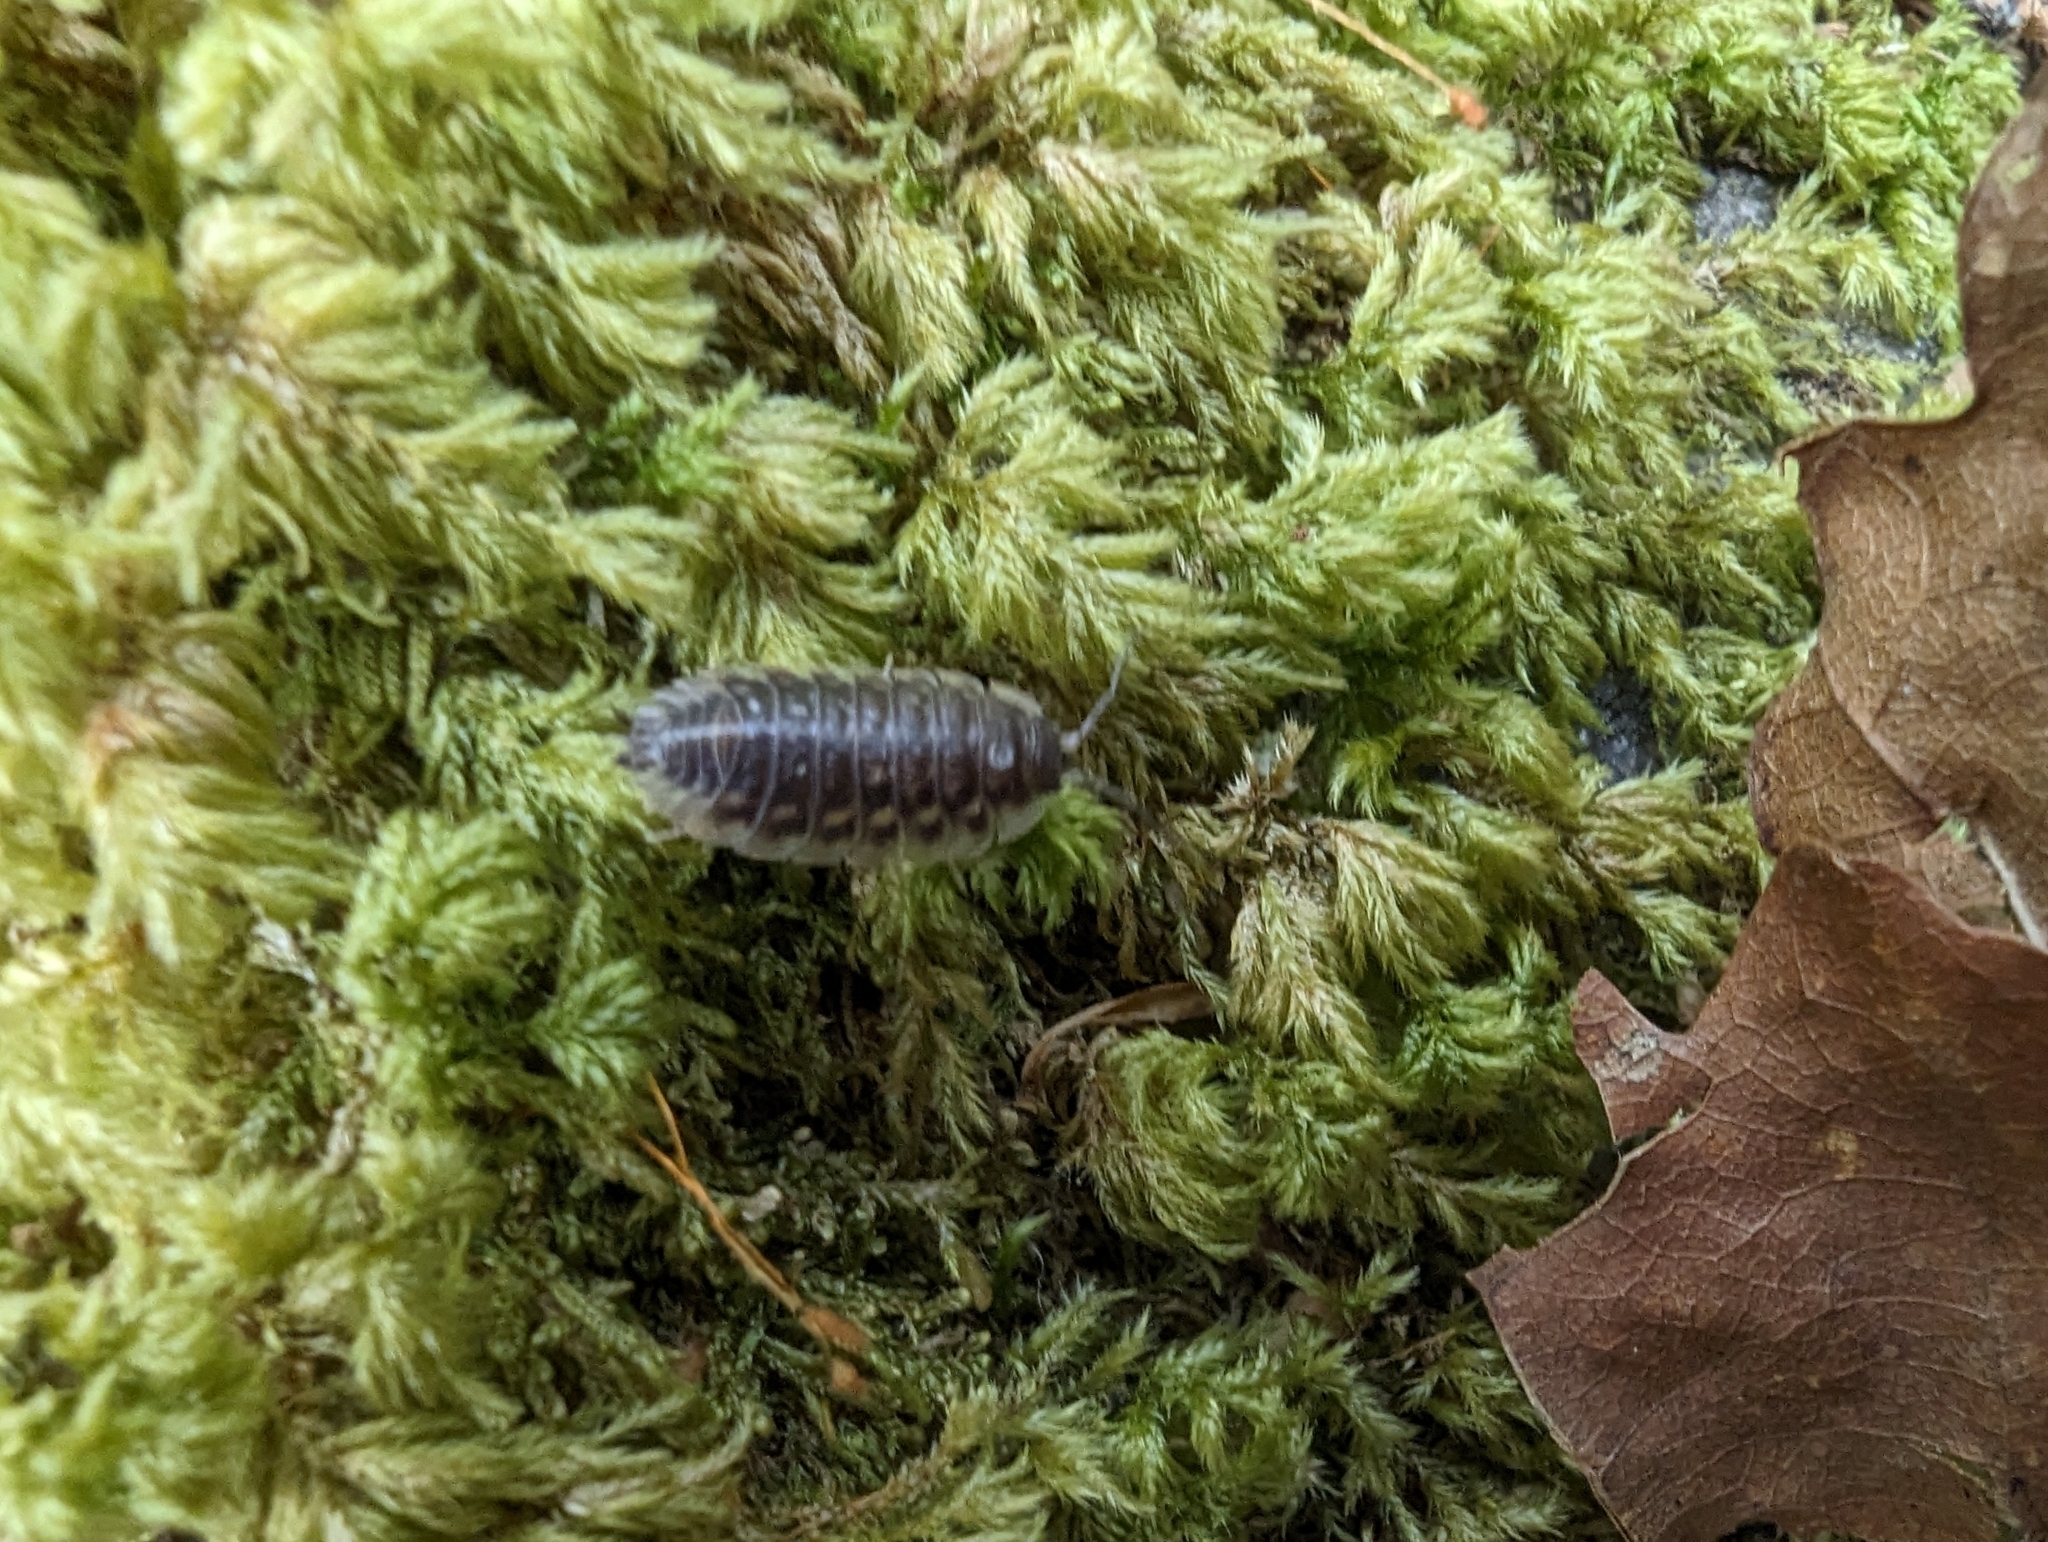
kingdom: Animalia
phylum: Arthropoda
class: Malacostraca
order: Isopoda
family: Oniscidae
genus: Oniscus
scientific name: Oniscus asellus
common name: Common shiny woodlouse
